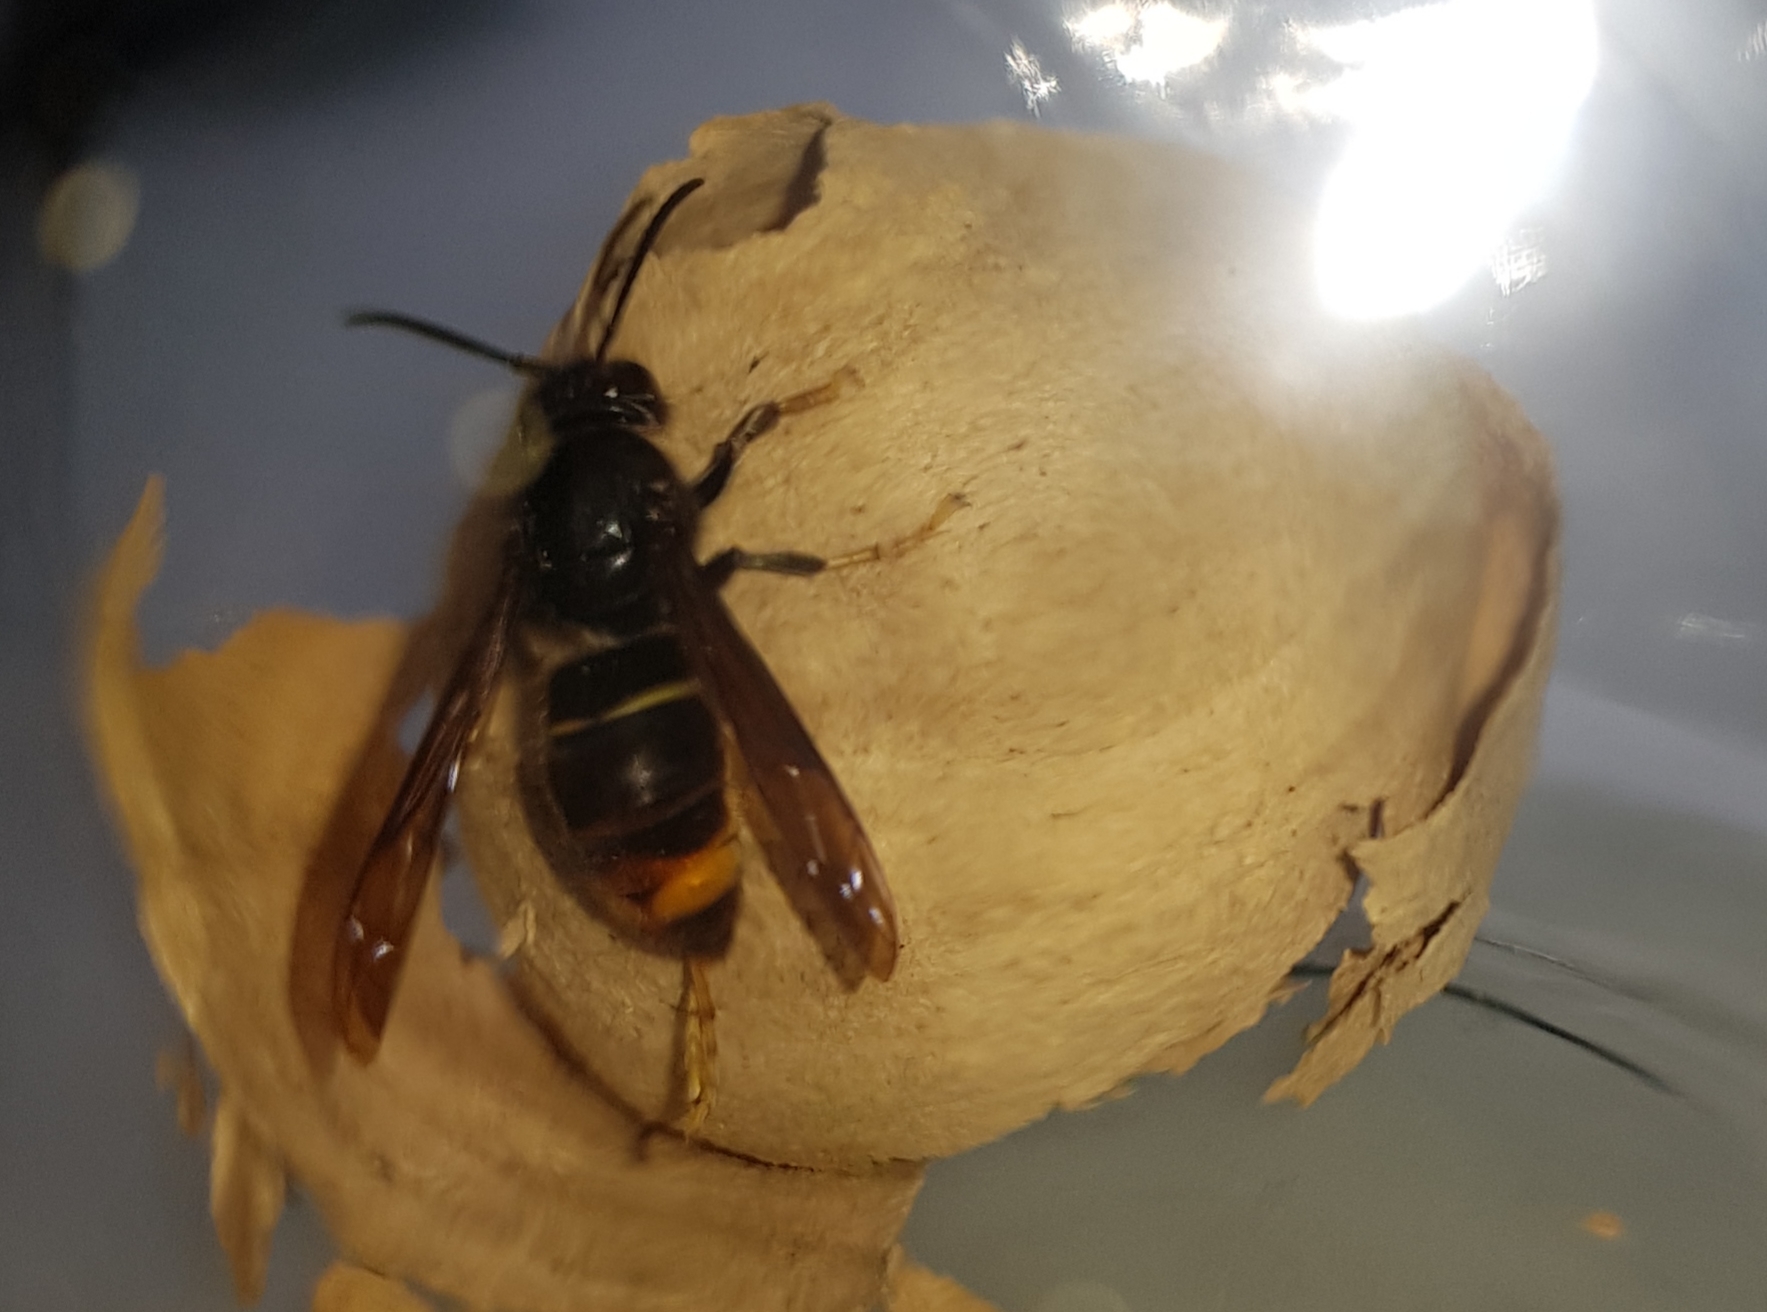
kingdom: Animalia
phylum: Arthropoda
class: Insecta
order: Hymenoptera
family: Vespidae
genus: Vespa
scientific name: Vespa velutina
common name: Asian hornet
